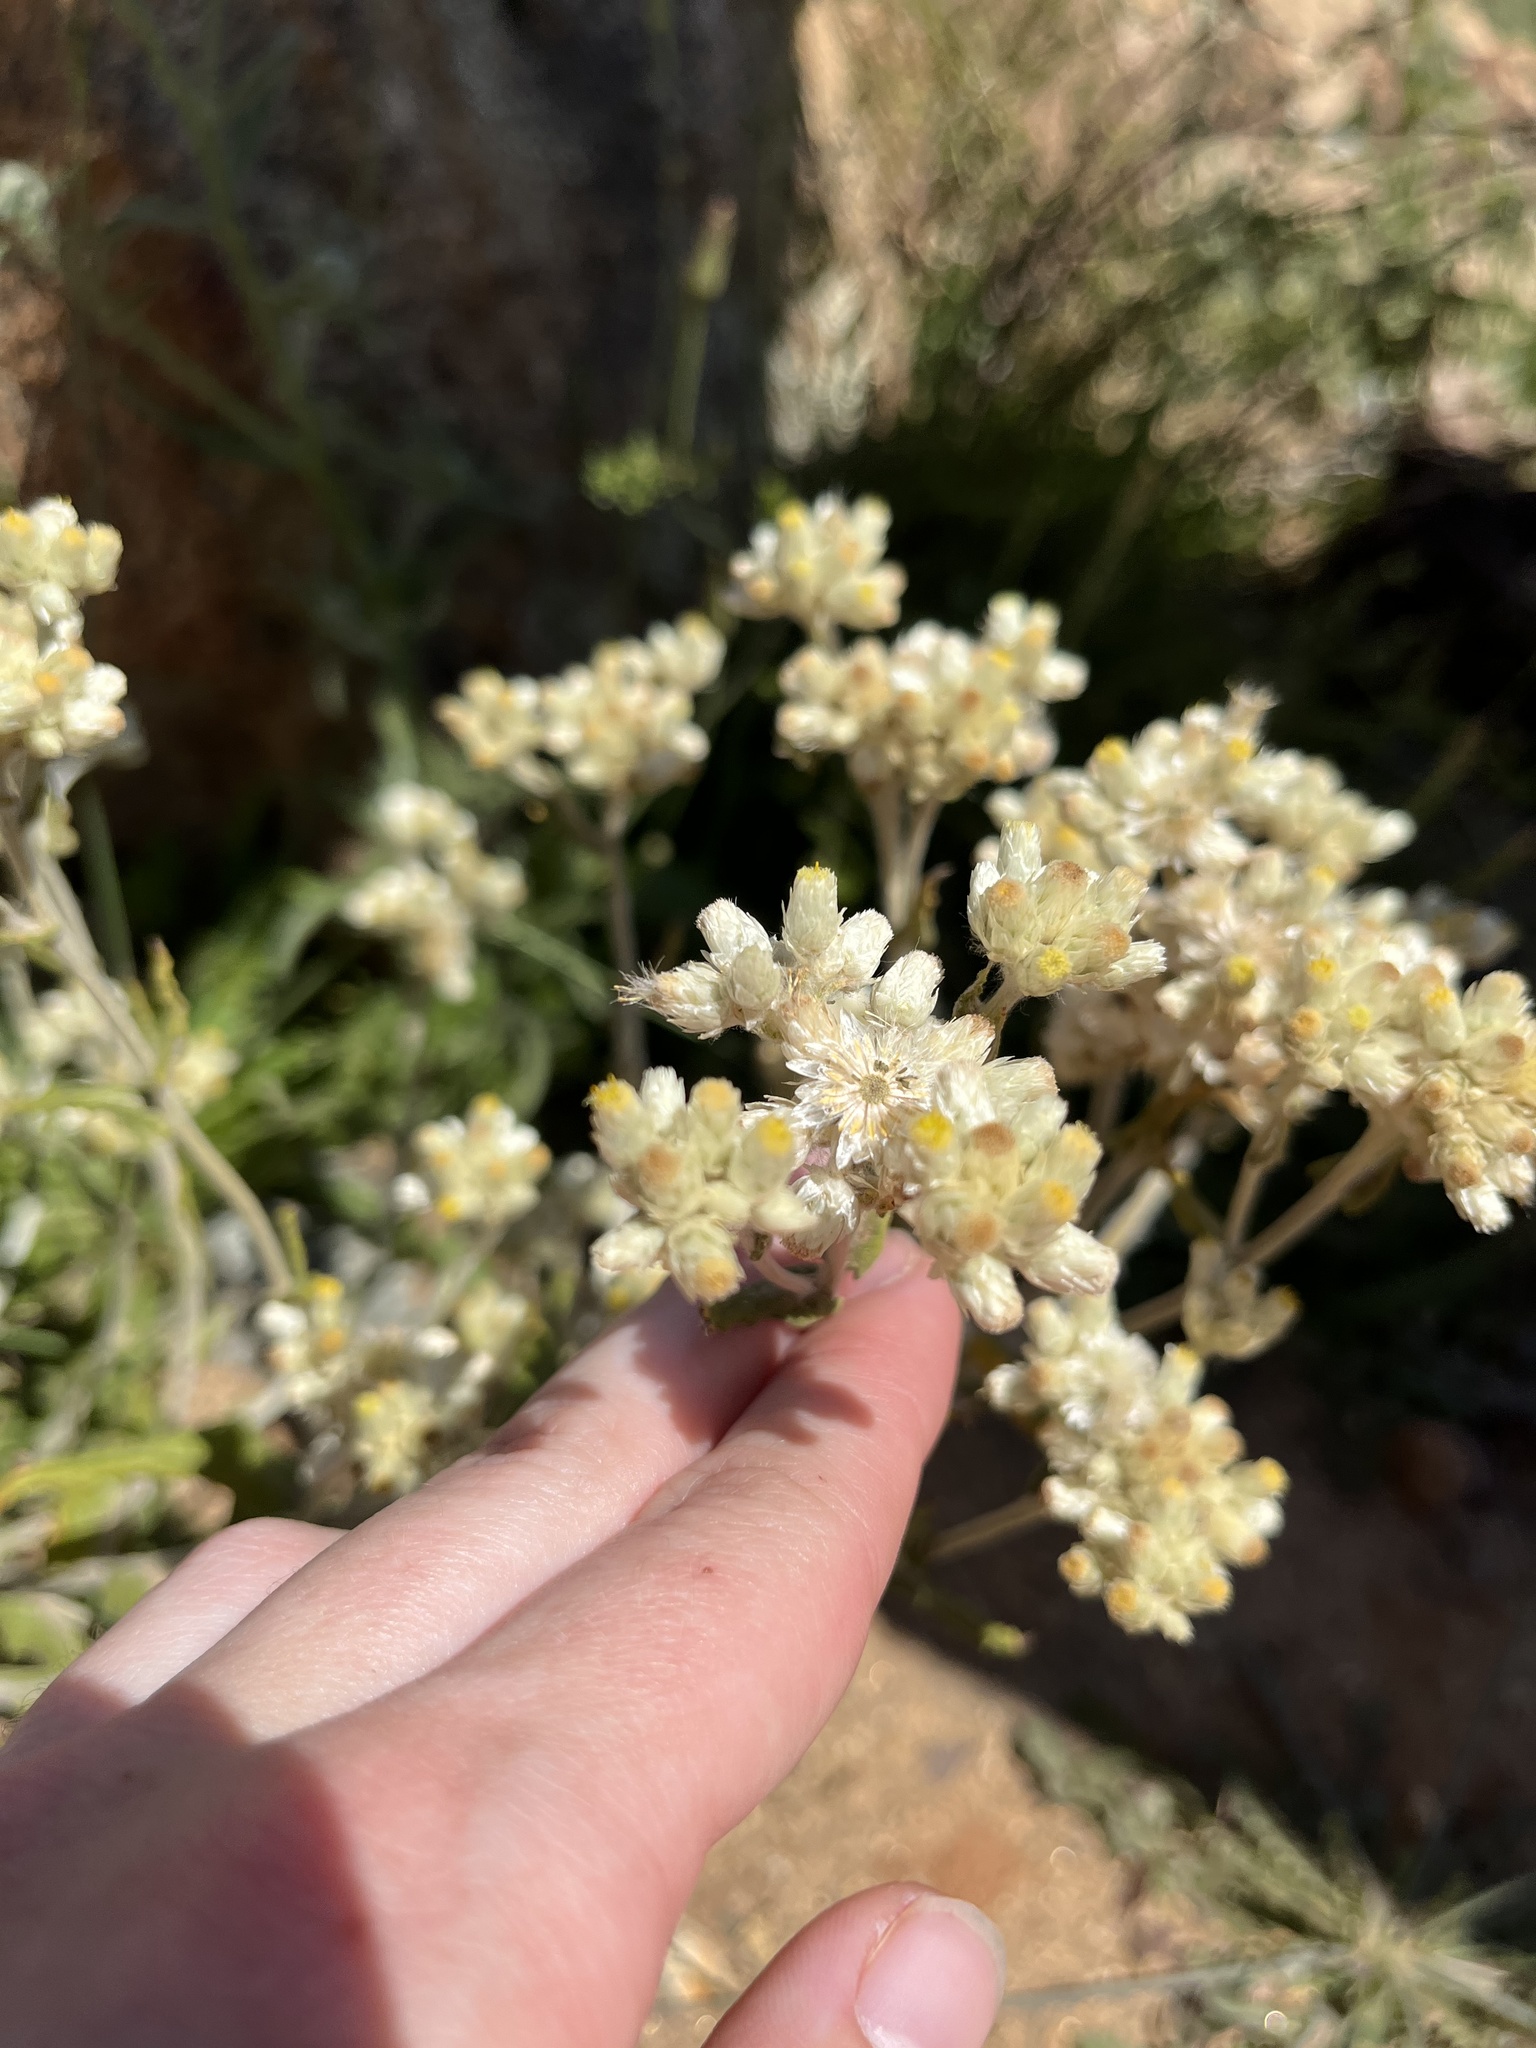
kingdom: Plantae
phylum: Tracheophyta
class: Magnoliopsida
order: Asterales
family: Asteraceae
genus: Pseudognaphalium
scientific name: Pseudognaphalium biolettii
